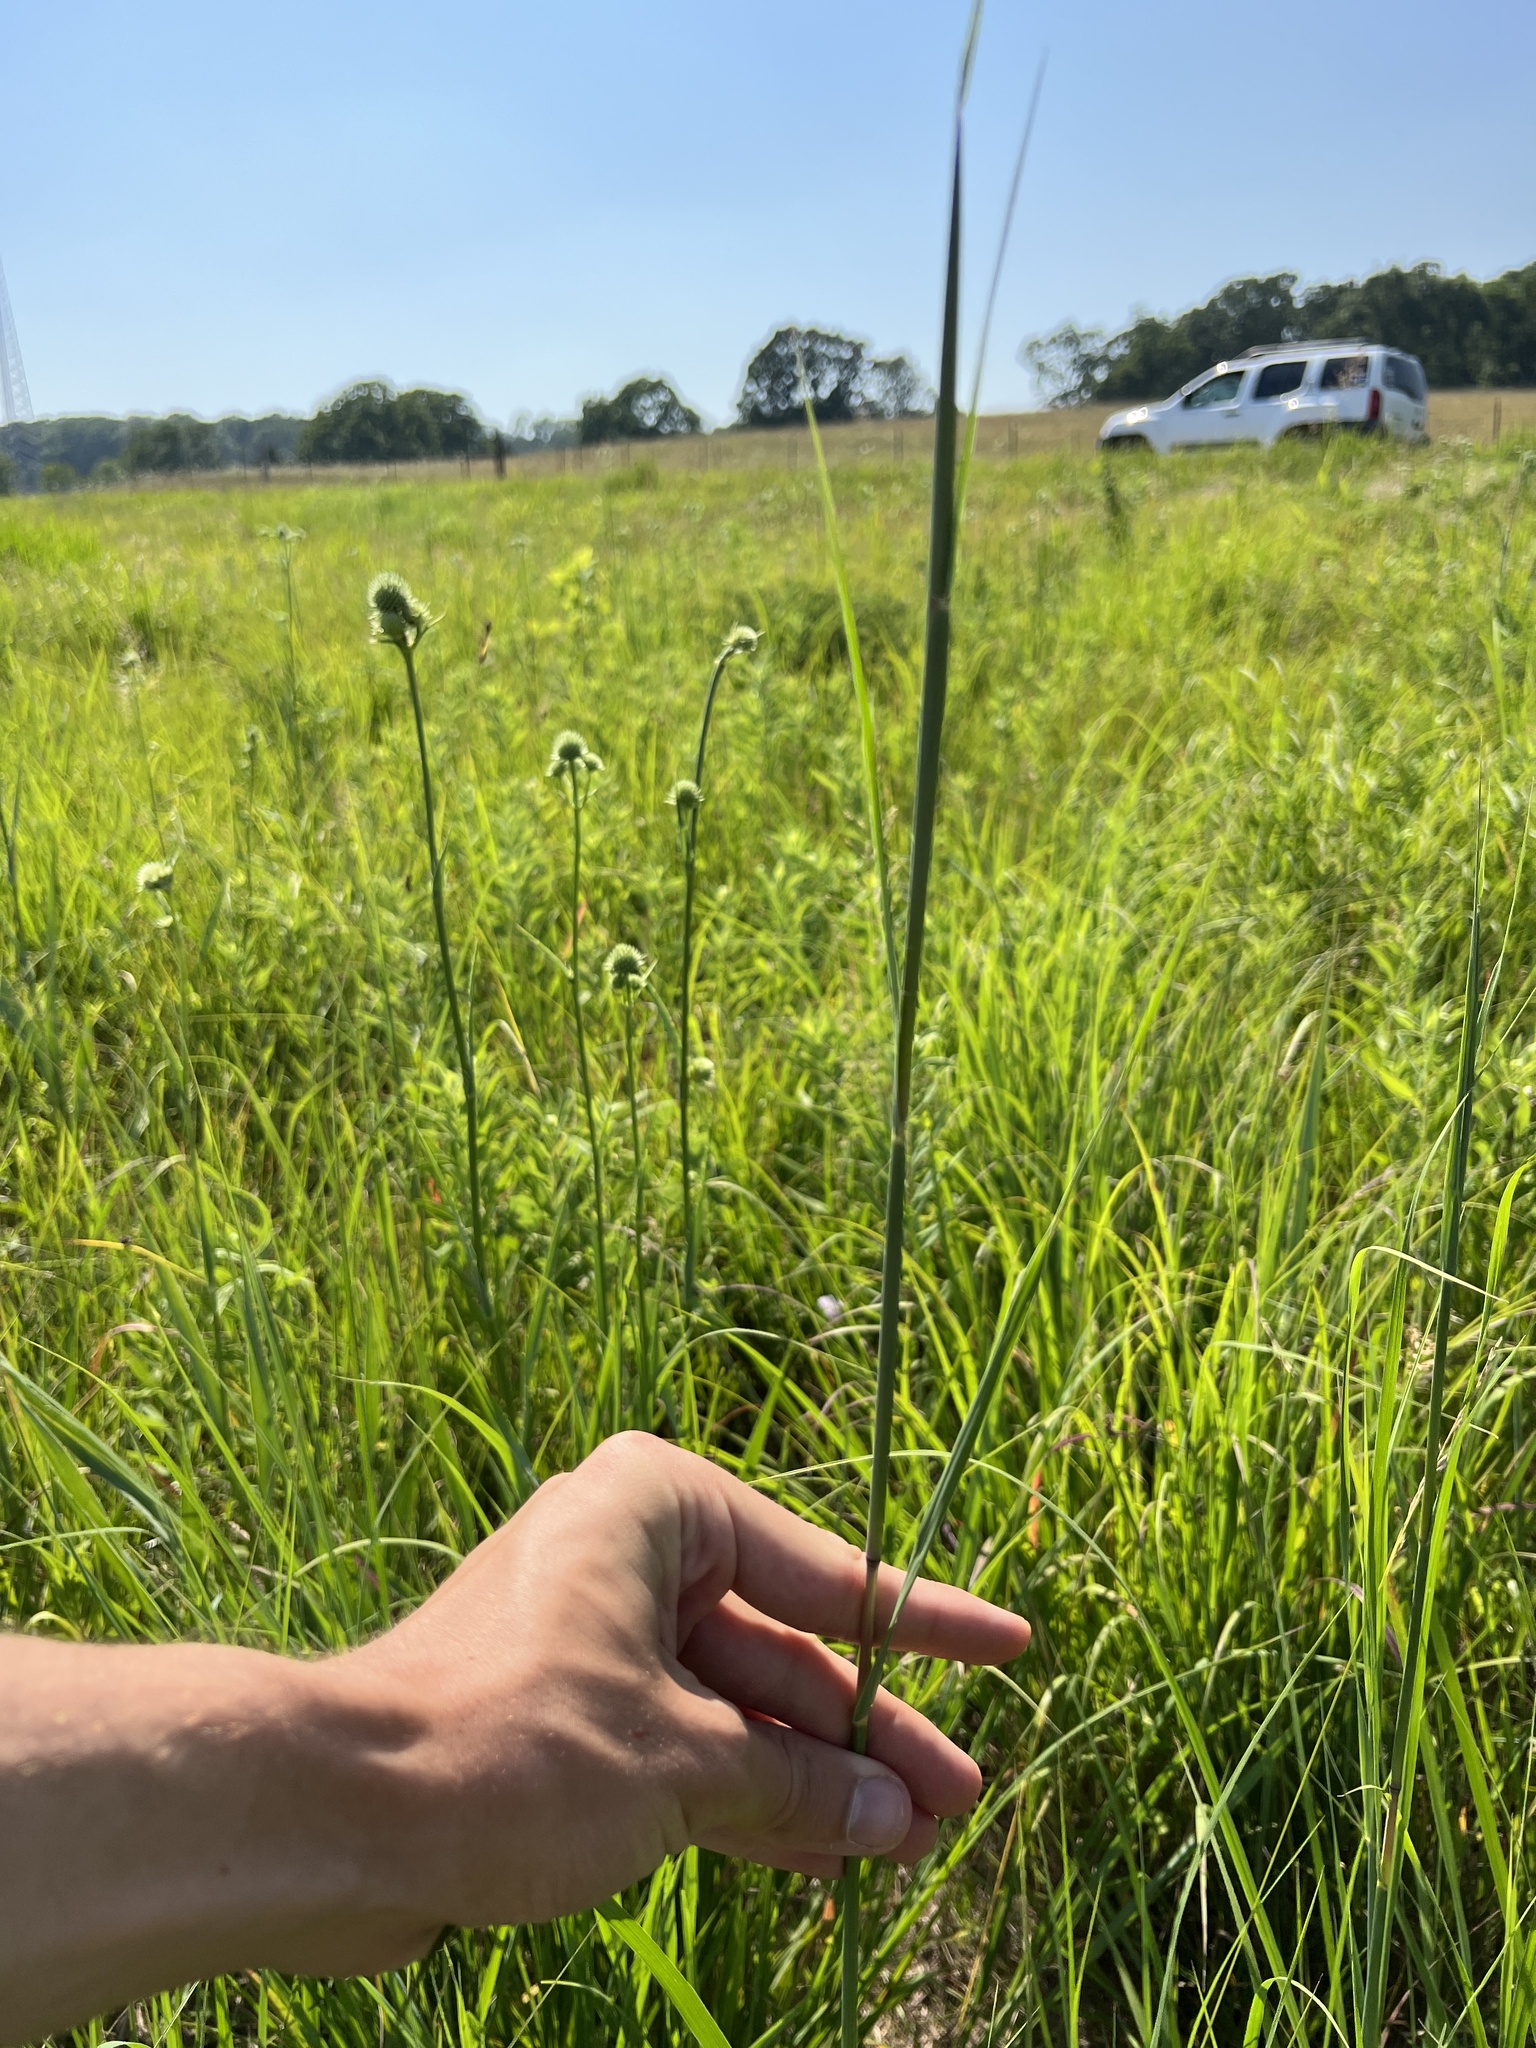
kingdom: Plantae
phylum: Tracheophyta
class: Liliopsida
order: Poales
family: Poaceae
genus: Andropogon
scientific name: Andropogon gerardi
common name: Big bluestem
